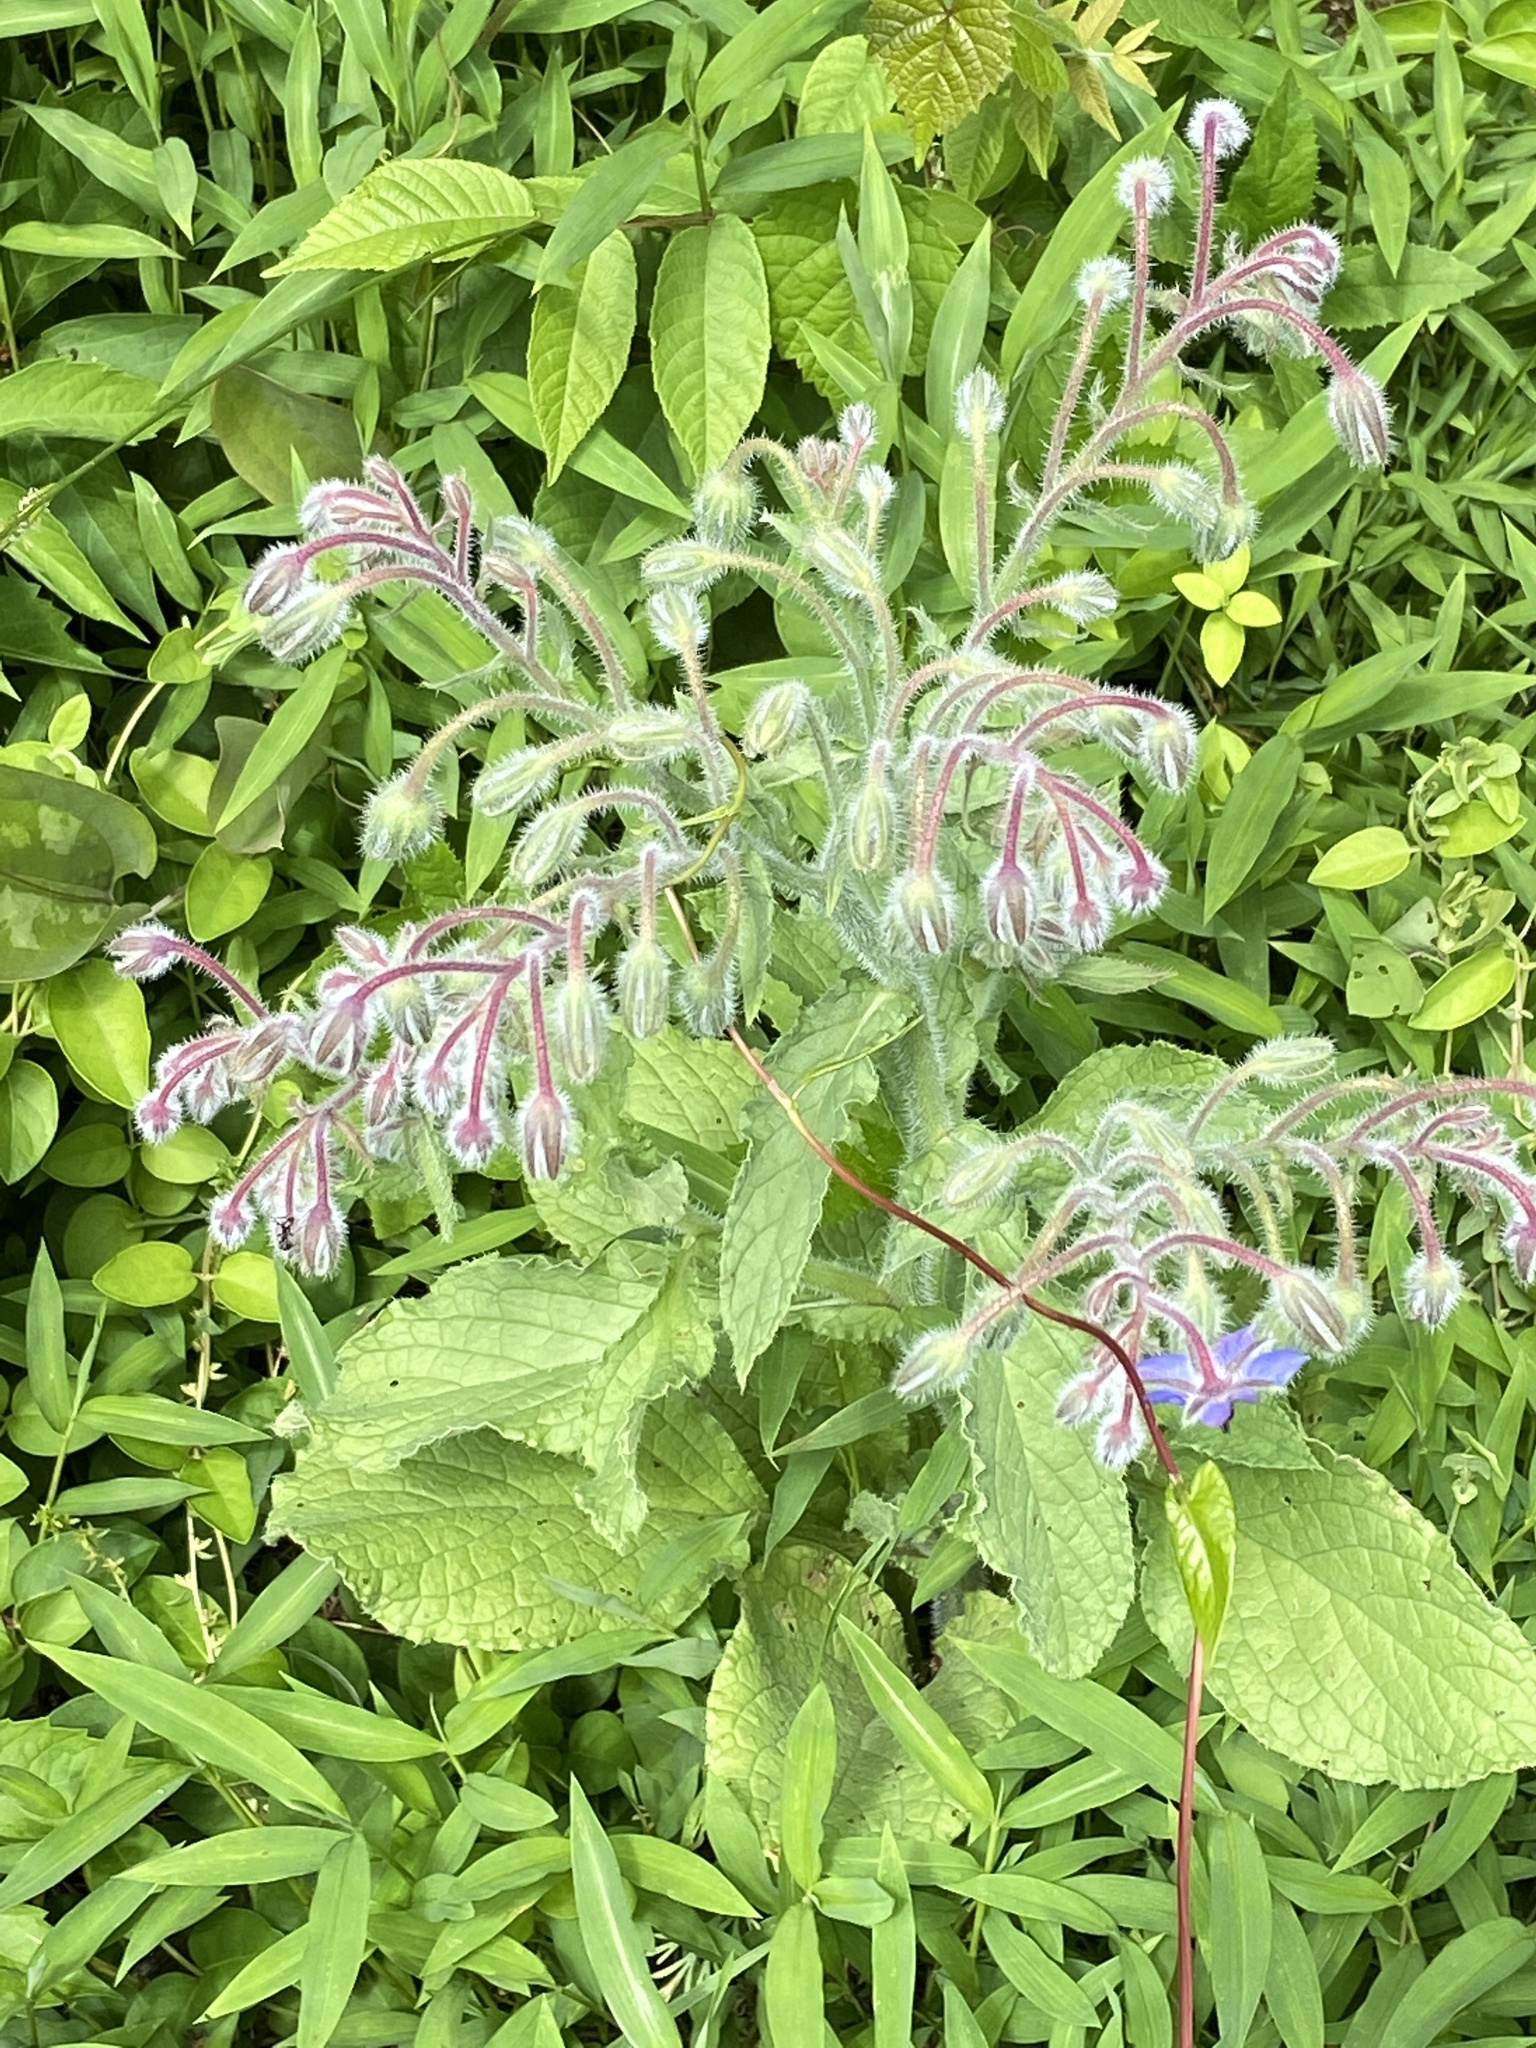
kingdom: Plantae
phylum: Tracheophyta
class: Magnoliopsida
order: Boraginales
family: Boraginaceae
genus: Borago
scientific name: Borago officinalis
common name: Borage
